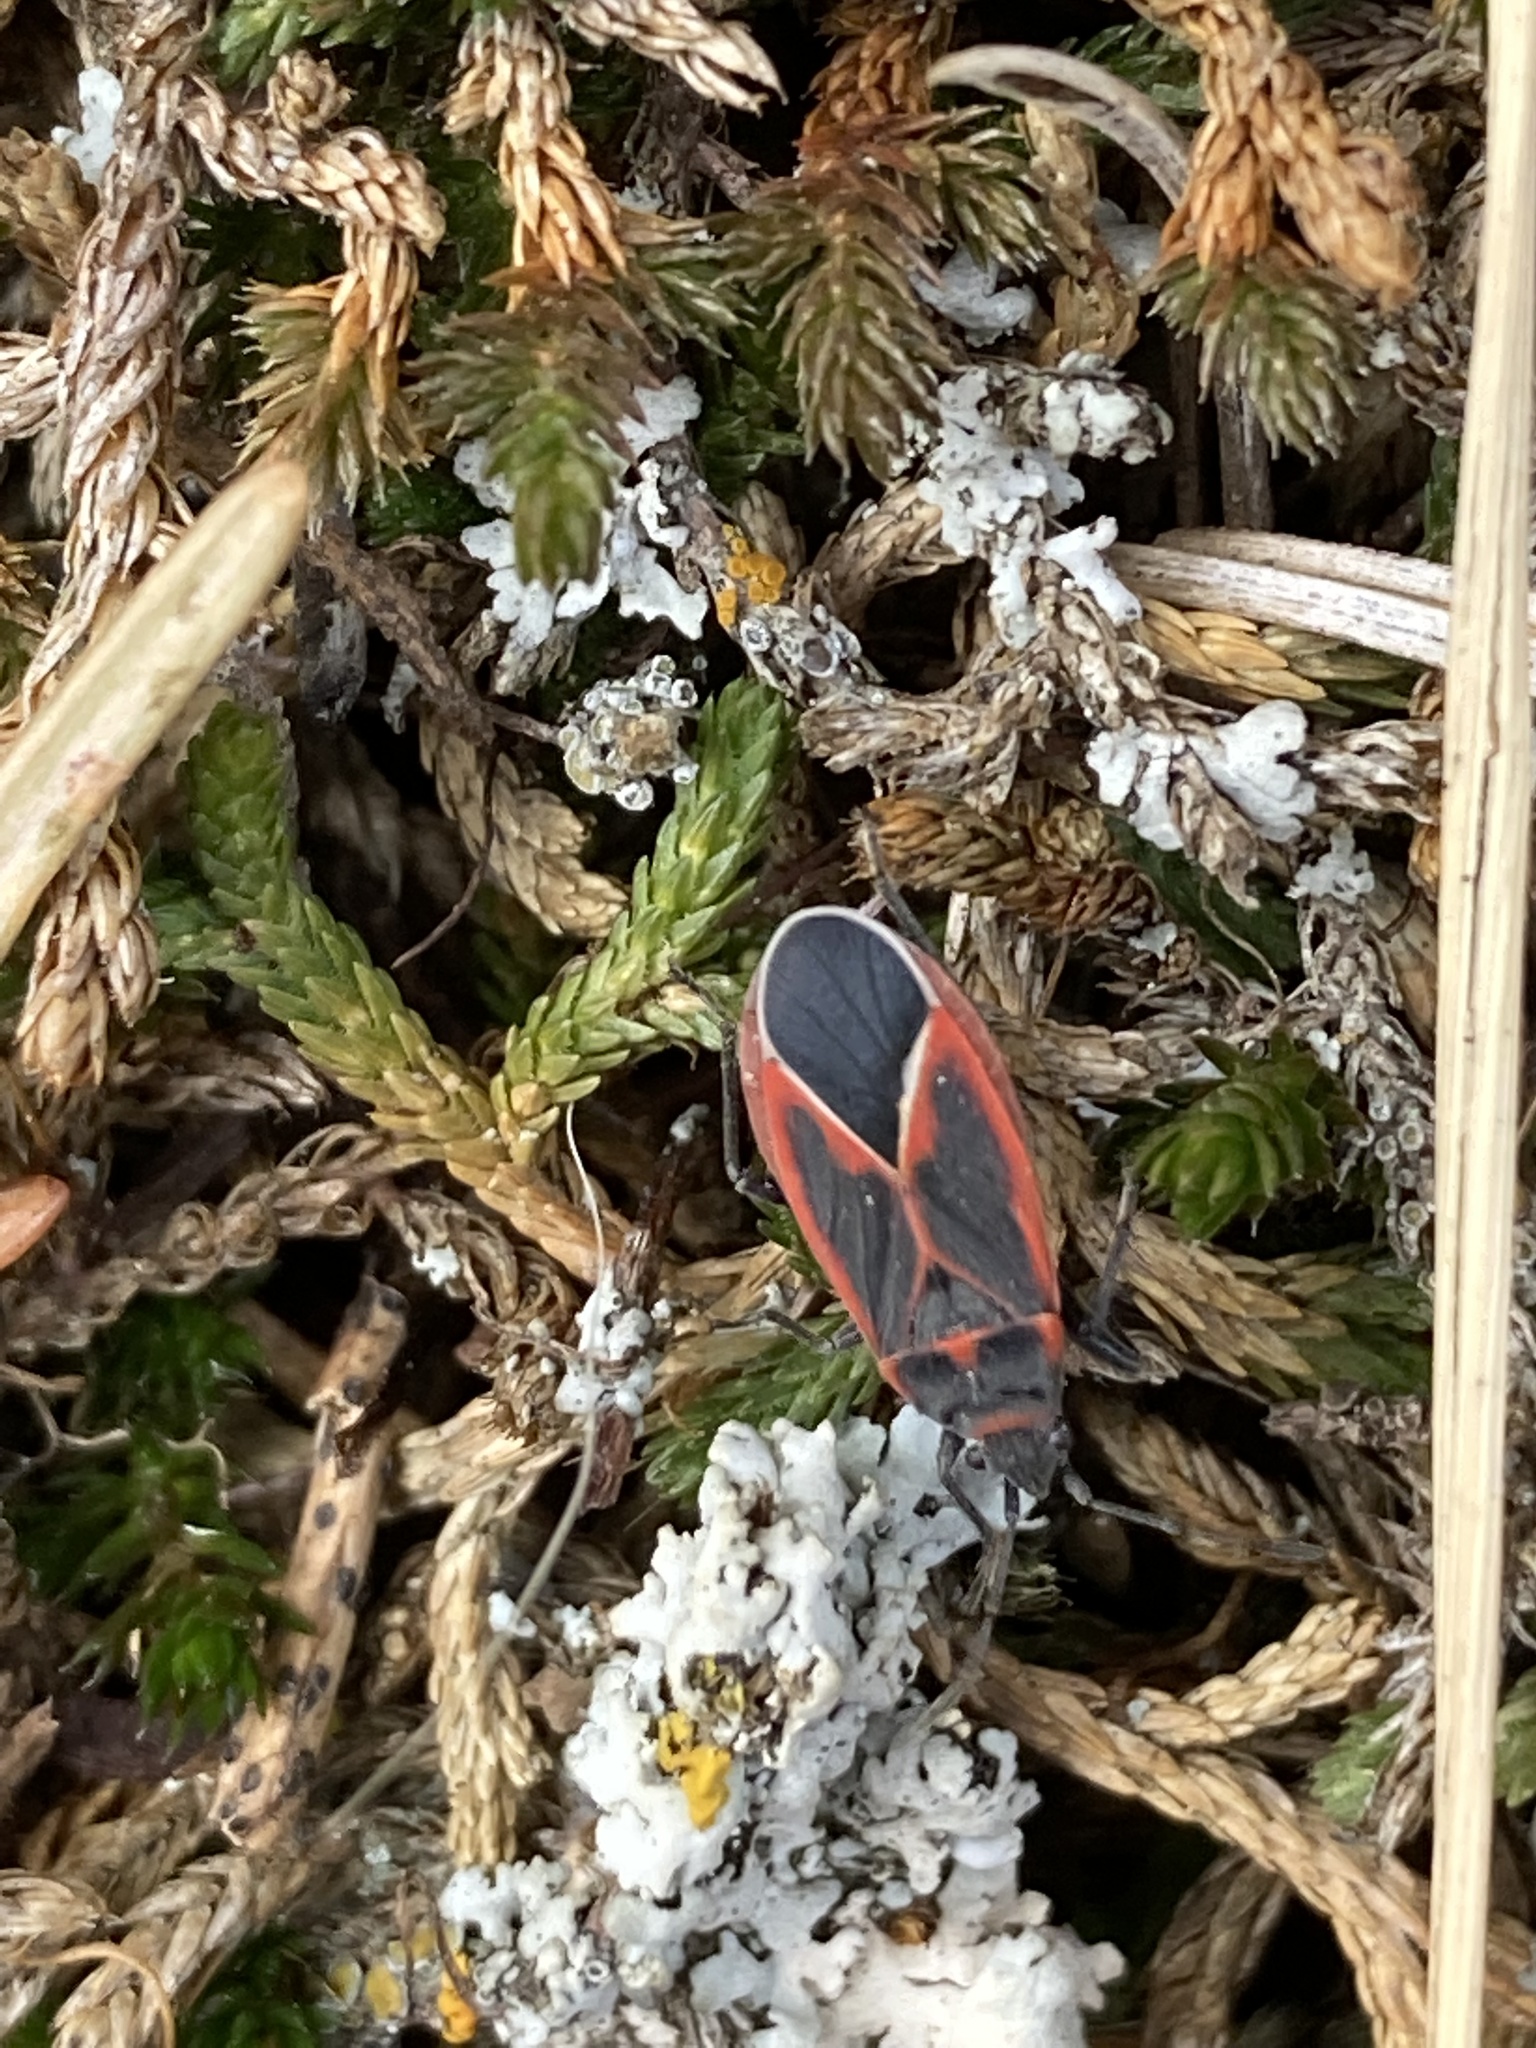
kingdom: Animalia
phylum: Arthropoda
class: Insecta
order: Hemiptera
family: Lygaeidae
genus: Melacoryphus
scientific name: Melacoryphus admirabilis
